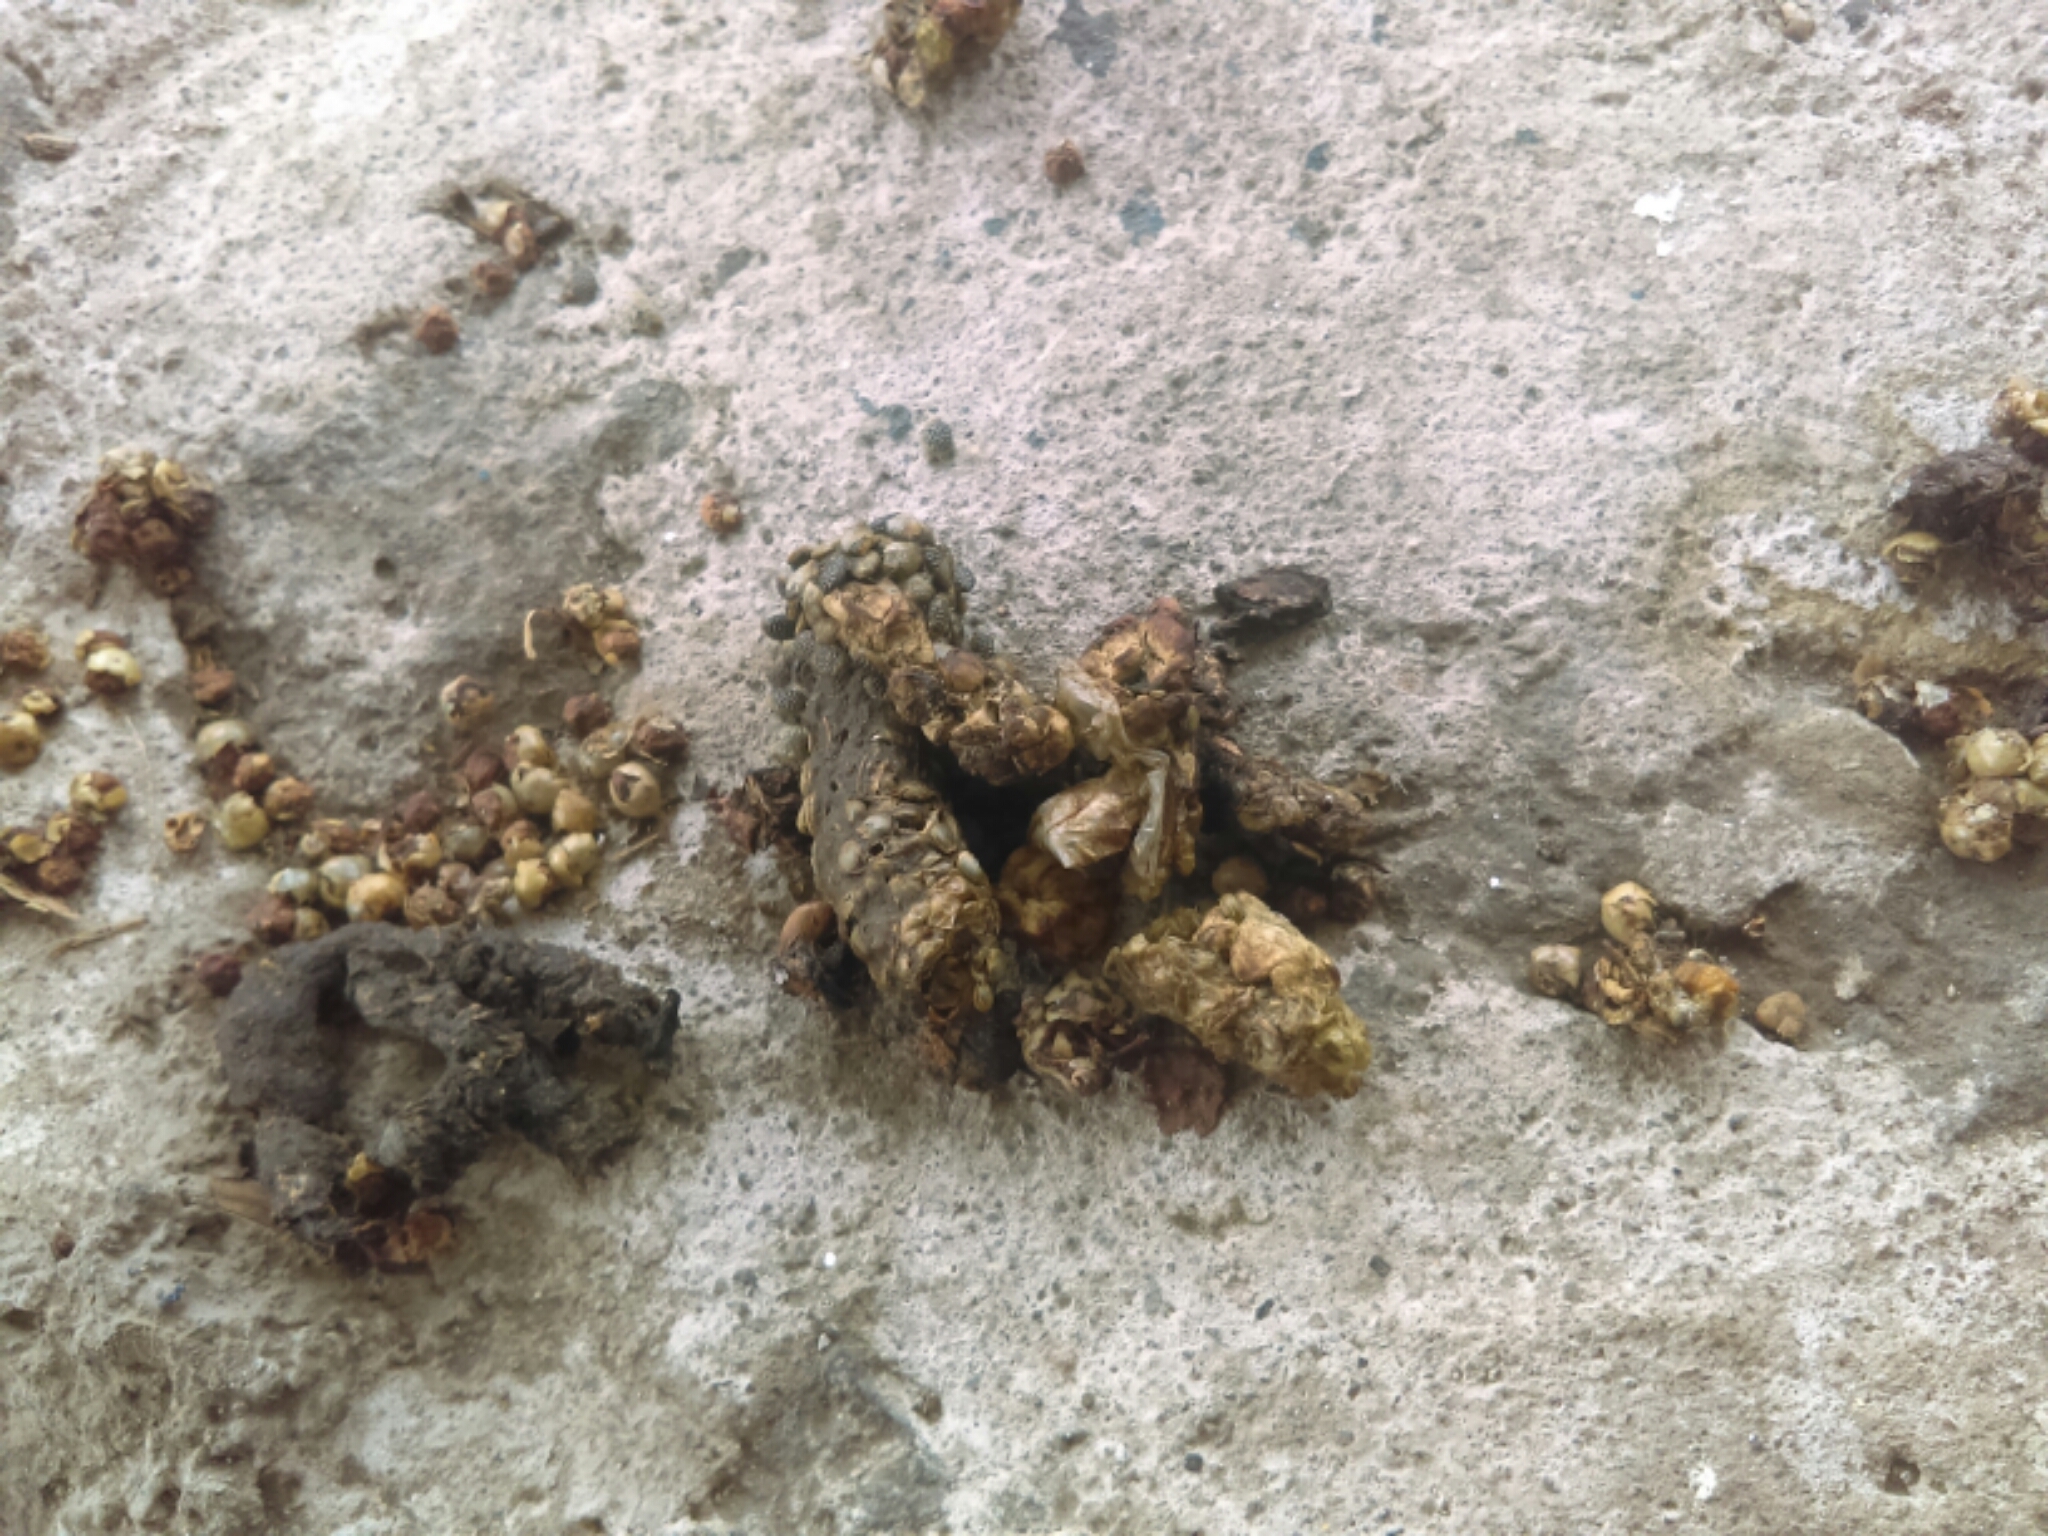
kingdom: Animalia
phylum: Chordata
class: Mammalia
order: Carnivora
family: Procyonidae
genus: Bassariscus
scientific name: Bassariscus astutus
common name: Ringtail
